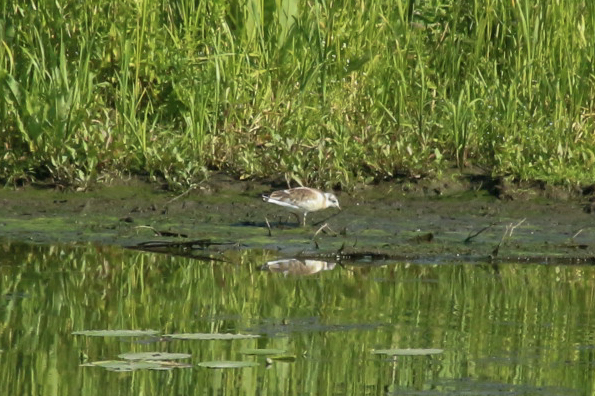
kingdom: Animalia
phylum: Chordata
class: Aves
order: Charadriiformes
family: Laridae
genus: Chroicocephalus
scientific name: Chroicocephalus ridibundus
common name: Black-headed gull
